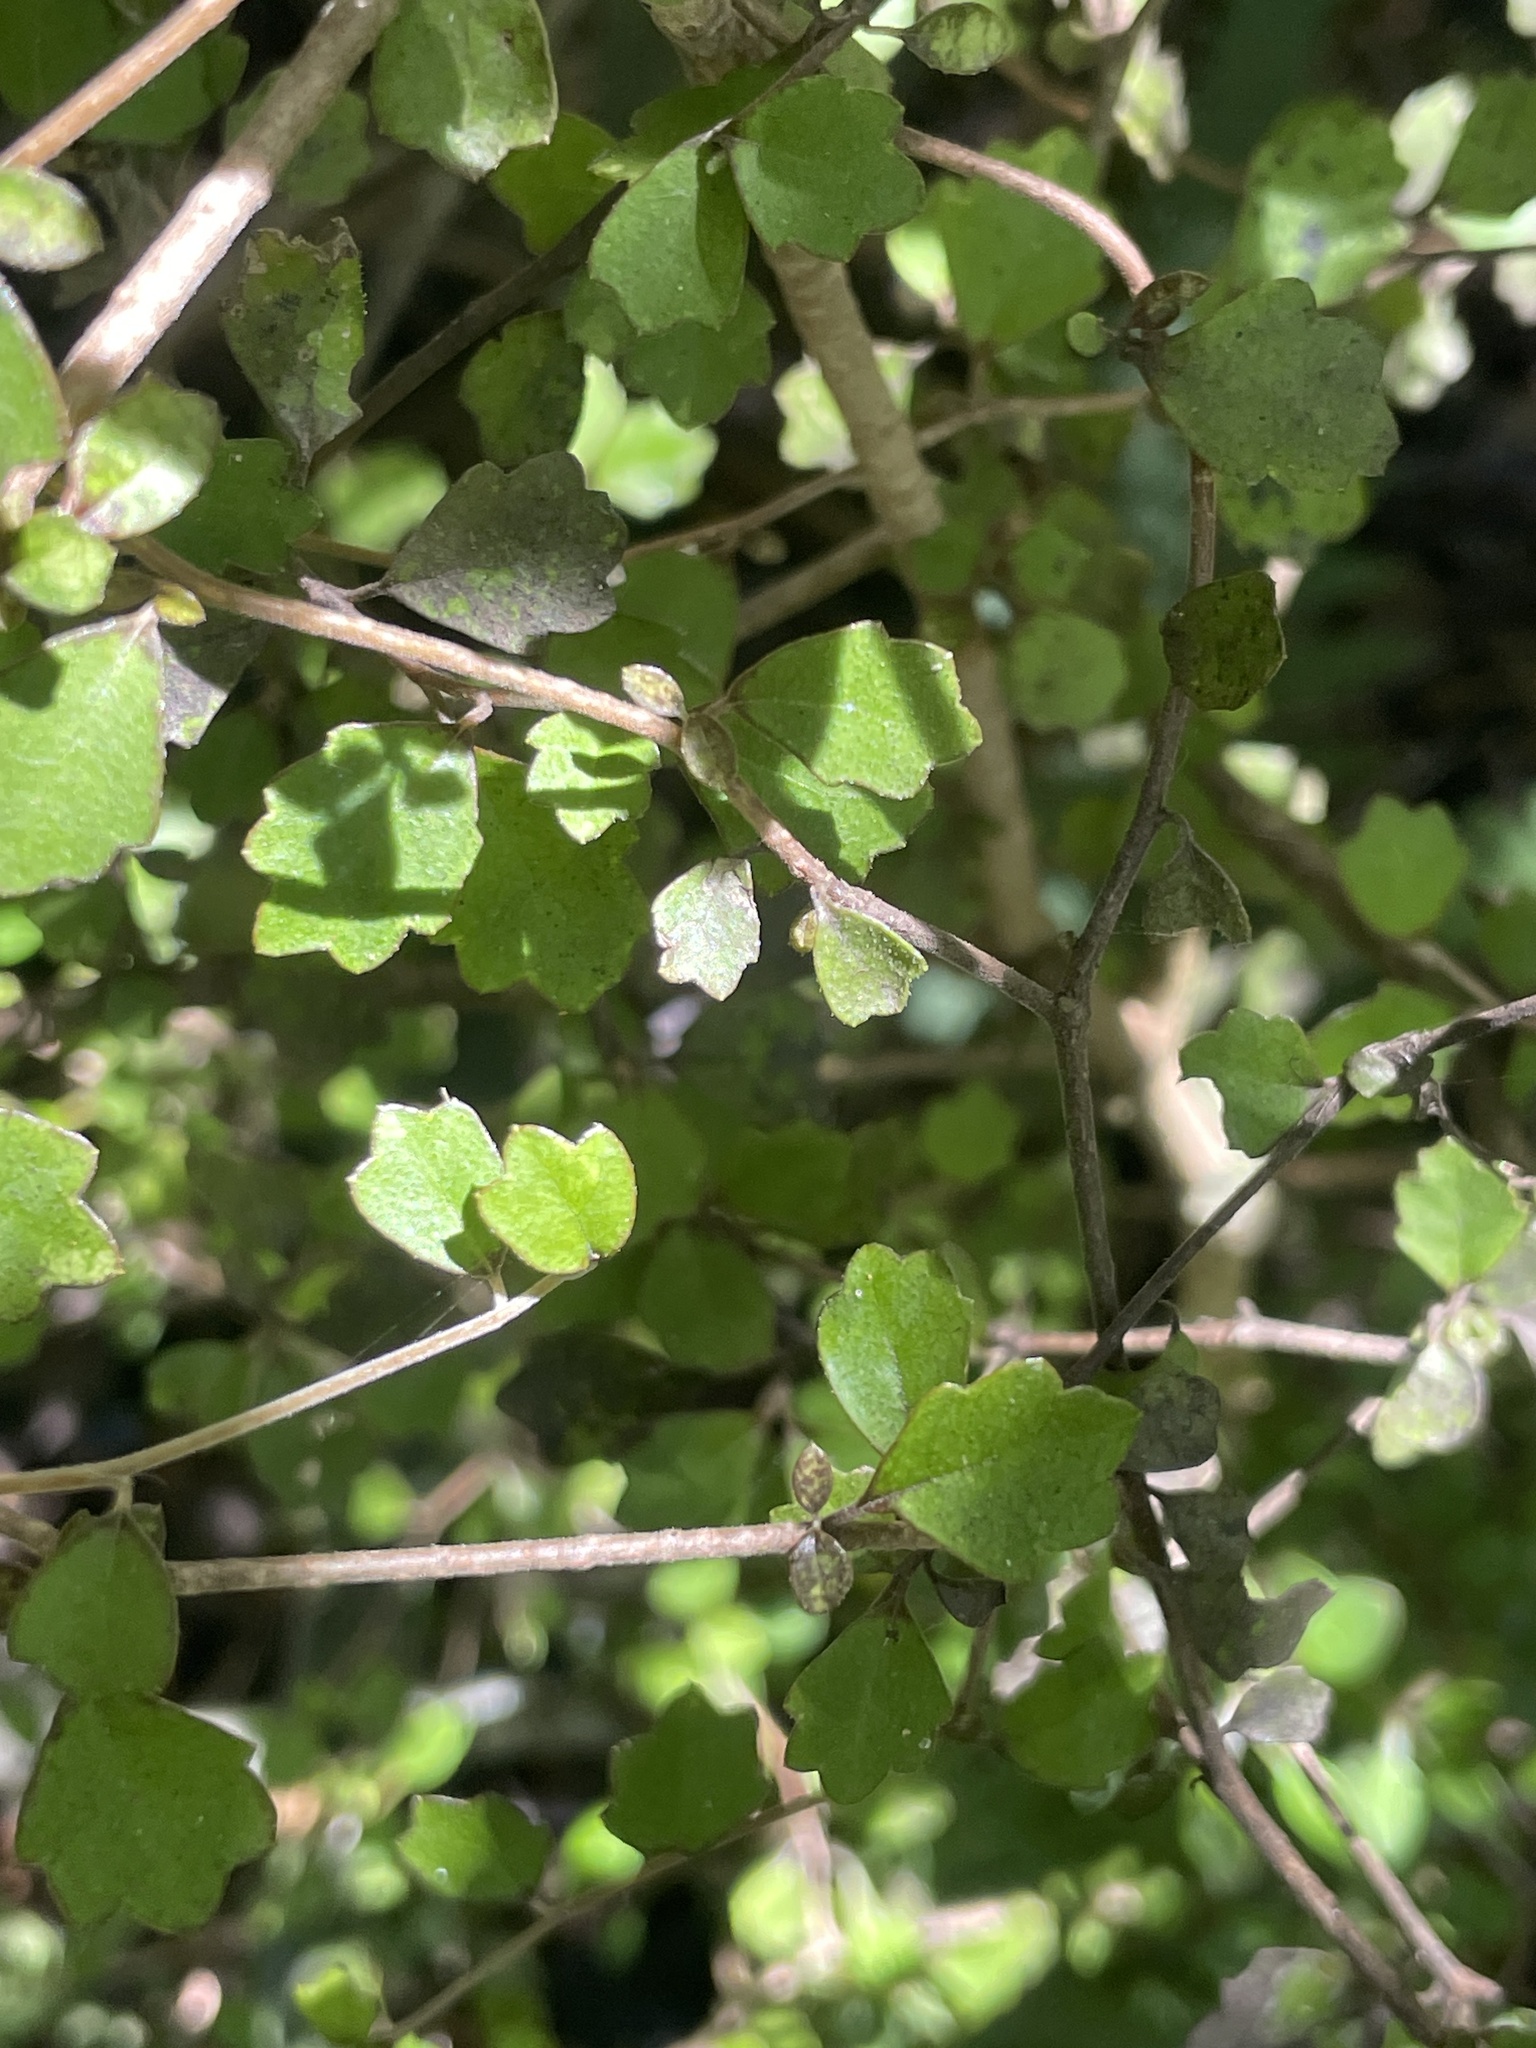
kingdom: Plantae
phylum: Tracheophyta
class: Magnoliopsida
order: Apiales
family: Pennantiaceae
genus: Pennantia
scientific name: Pennantia corymbosa
